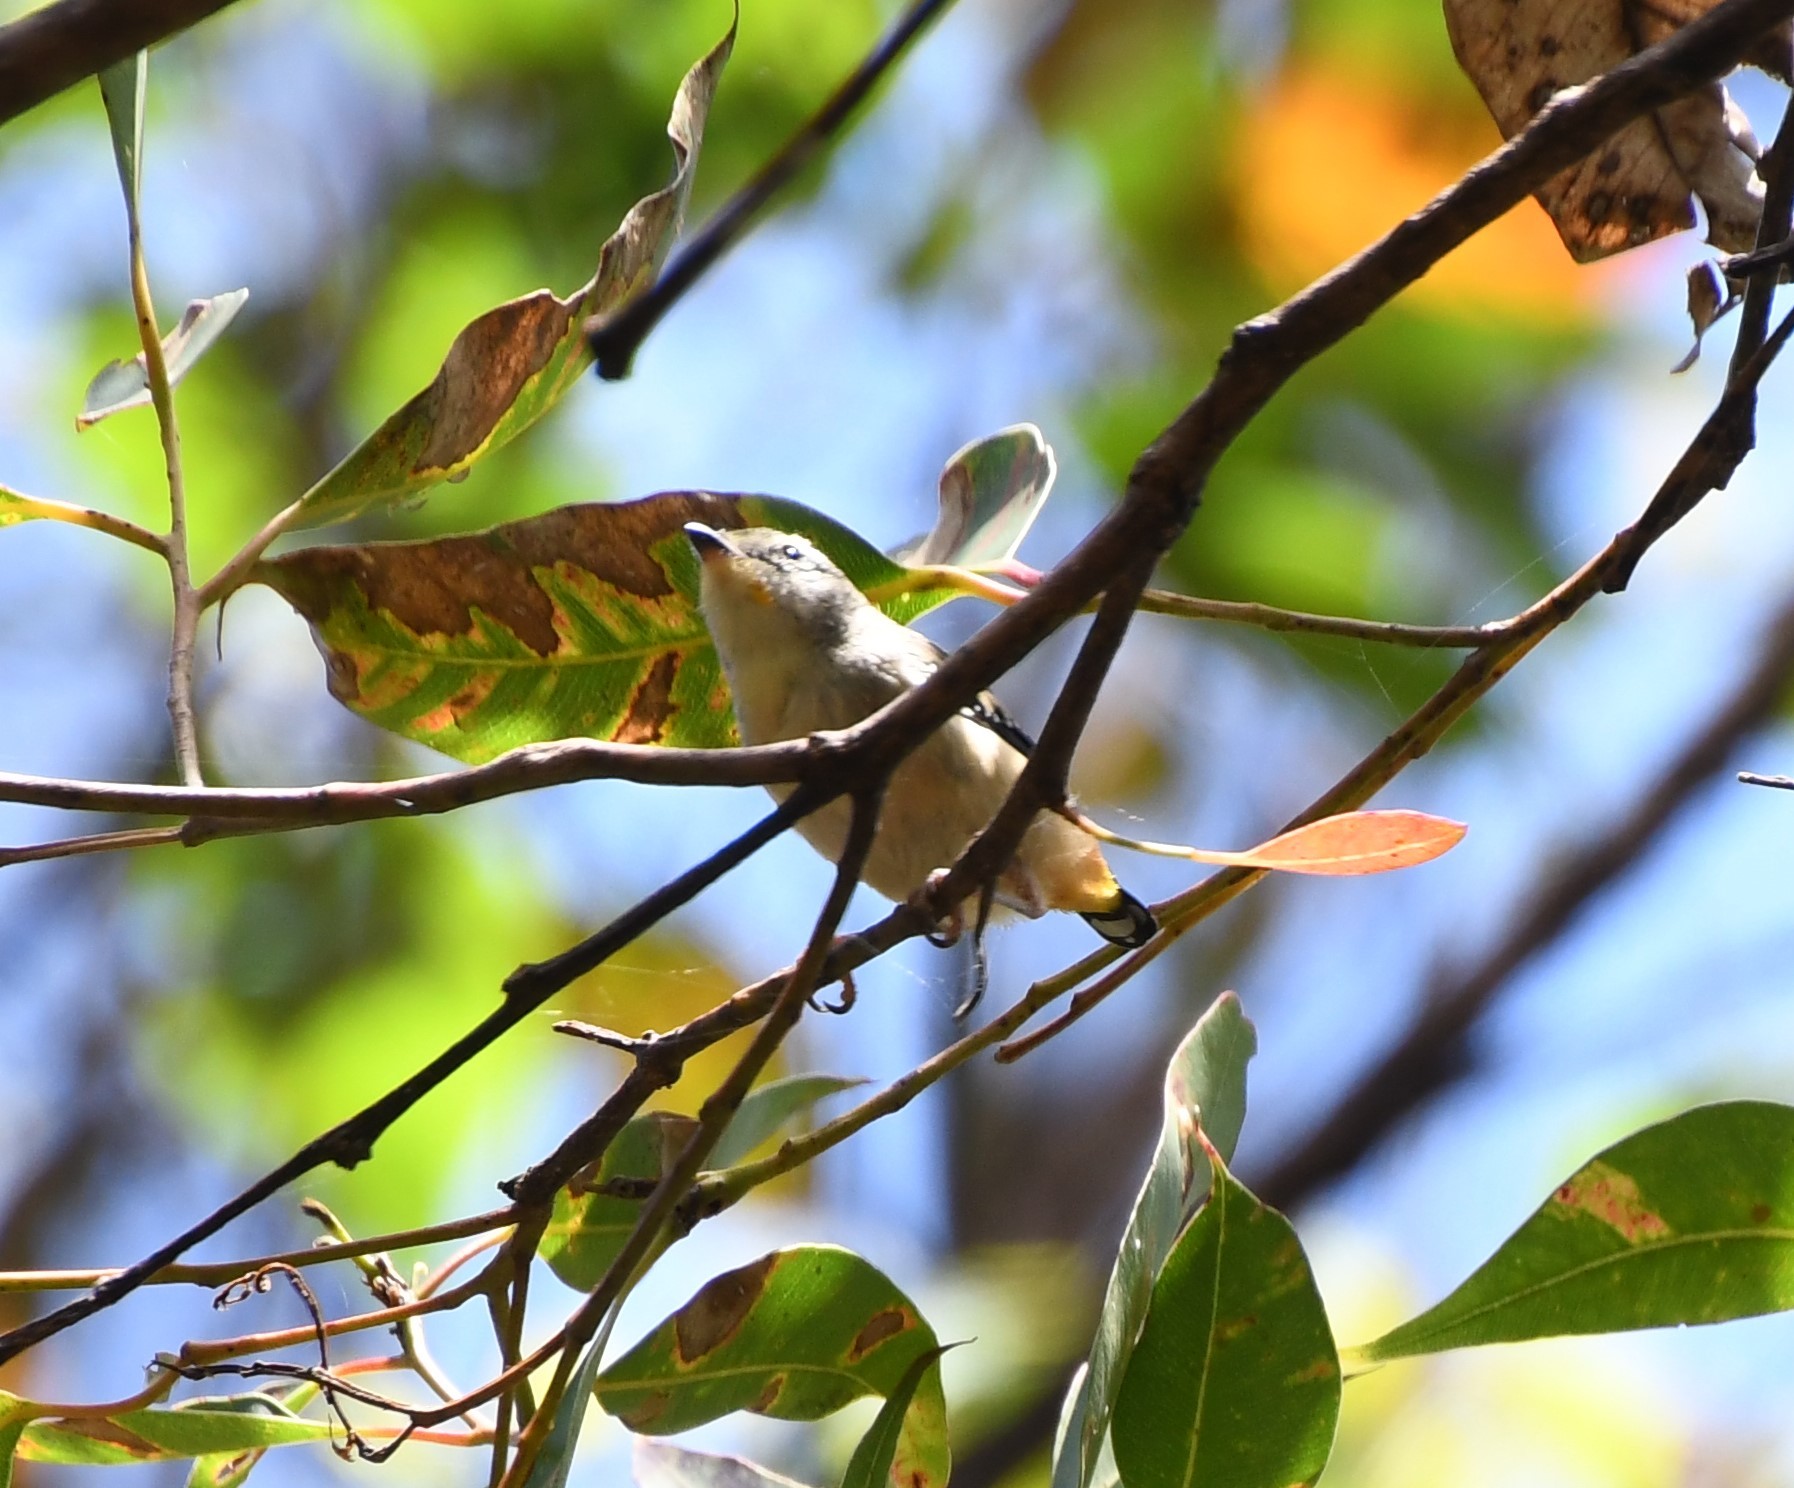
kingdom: Animalia
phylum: Chordata
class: Aves
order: Passeriformes
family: Pardalotidae
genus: Pardalotus
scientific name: Pardalotus punctatus
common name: Spotted pardalote
